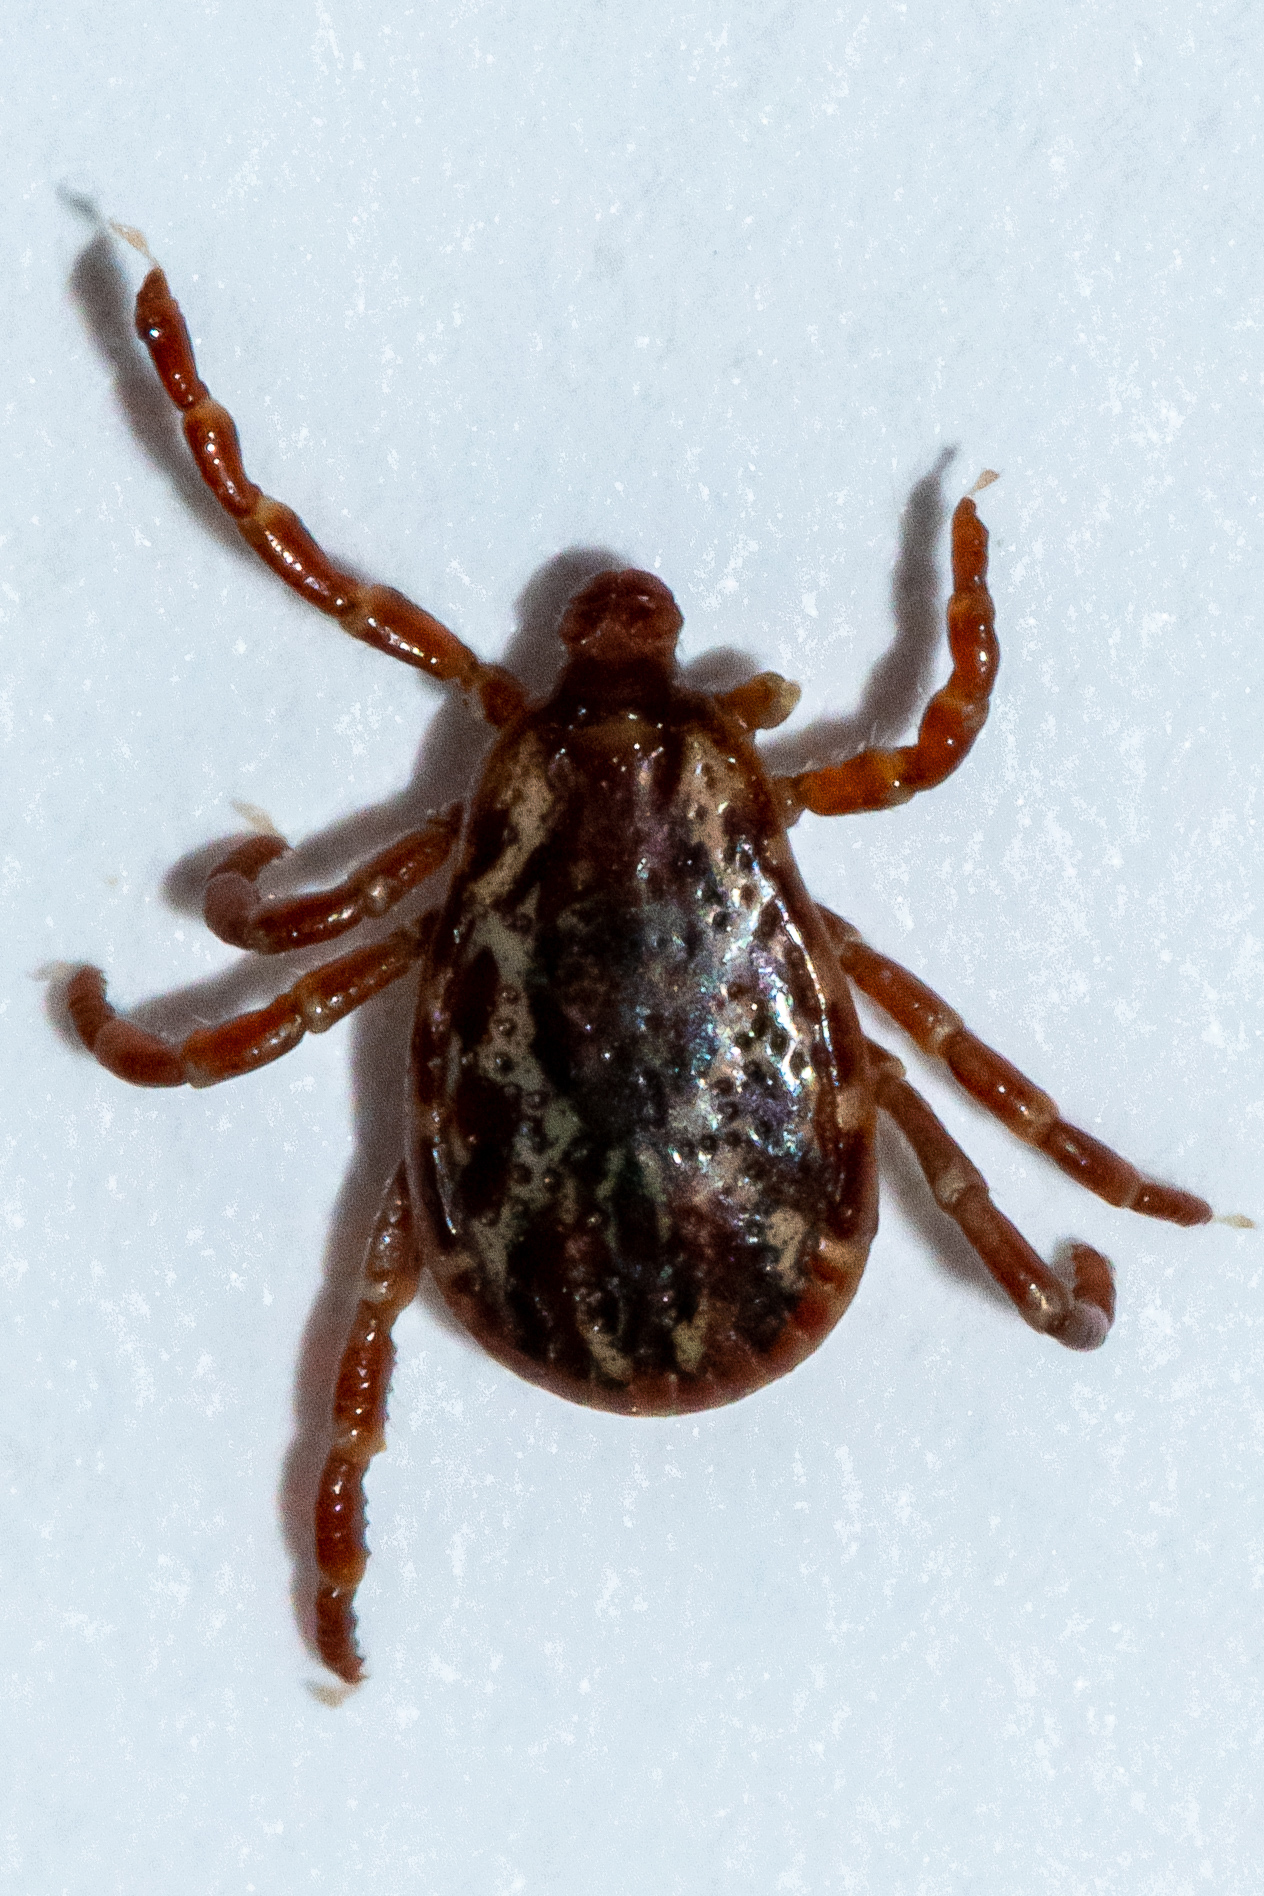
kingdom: Animalia
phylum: Arthropoda
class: Arachnida
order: Ixodida
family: Ixodidae
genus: Dermacentor
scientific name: Dermacentor variabilis
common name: American dog tick
